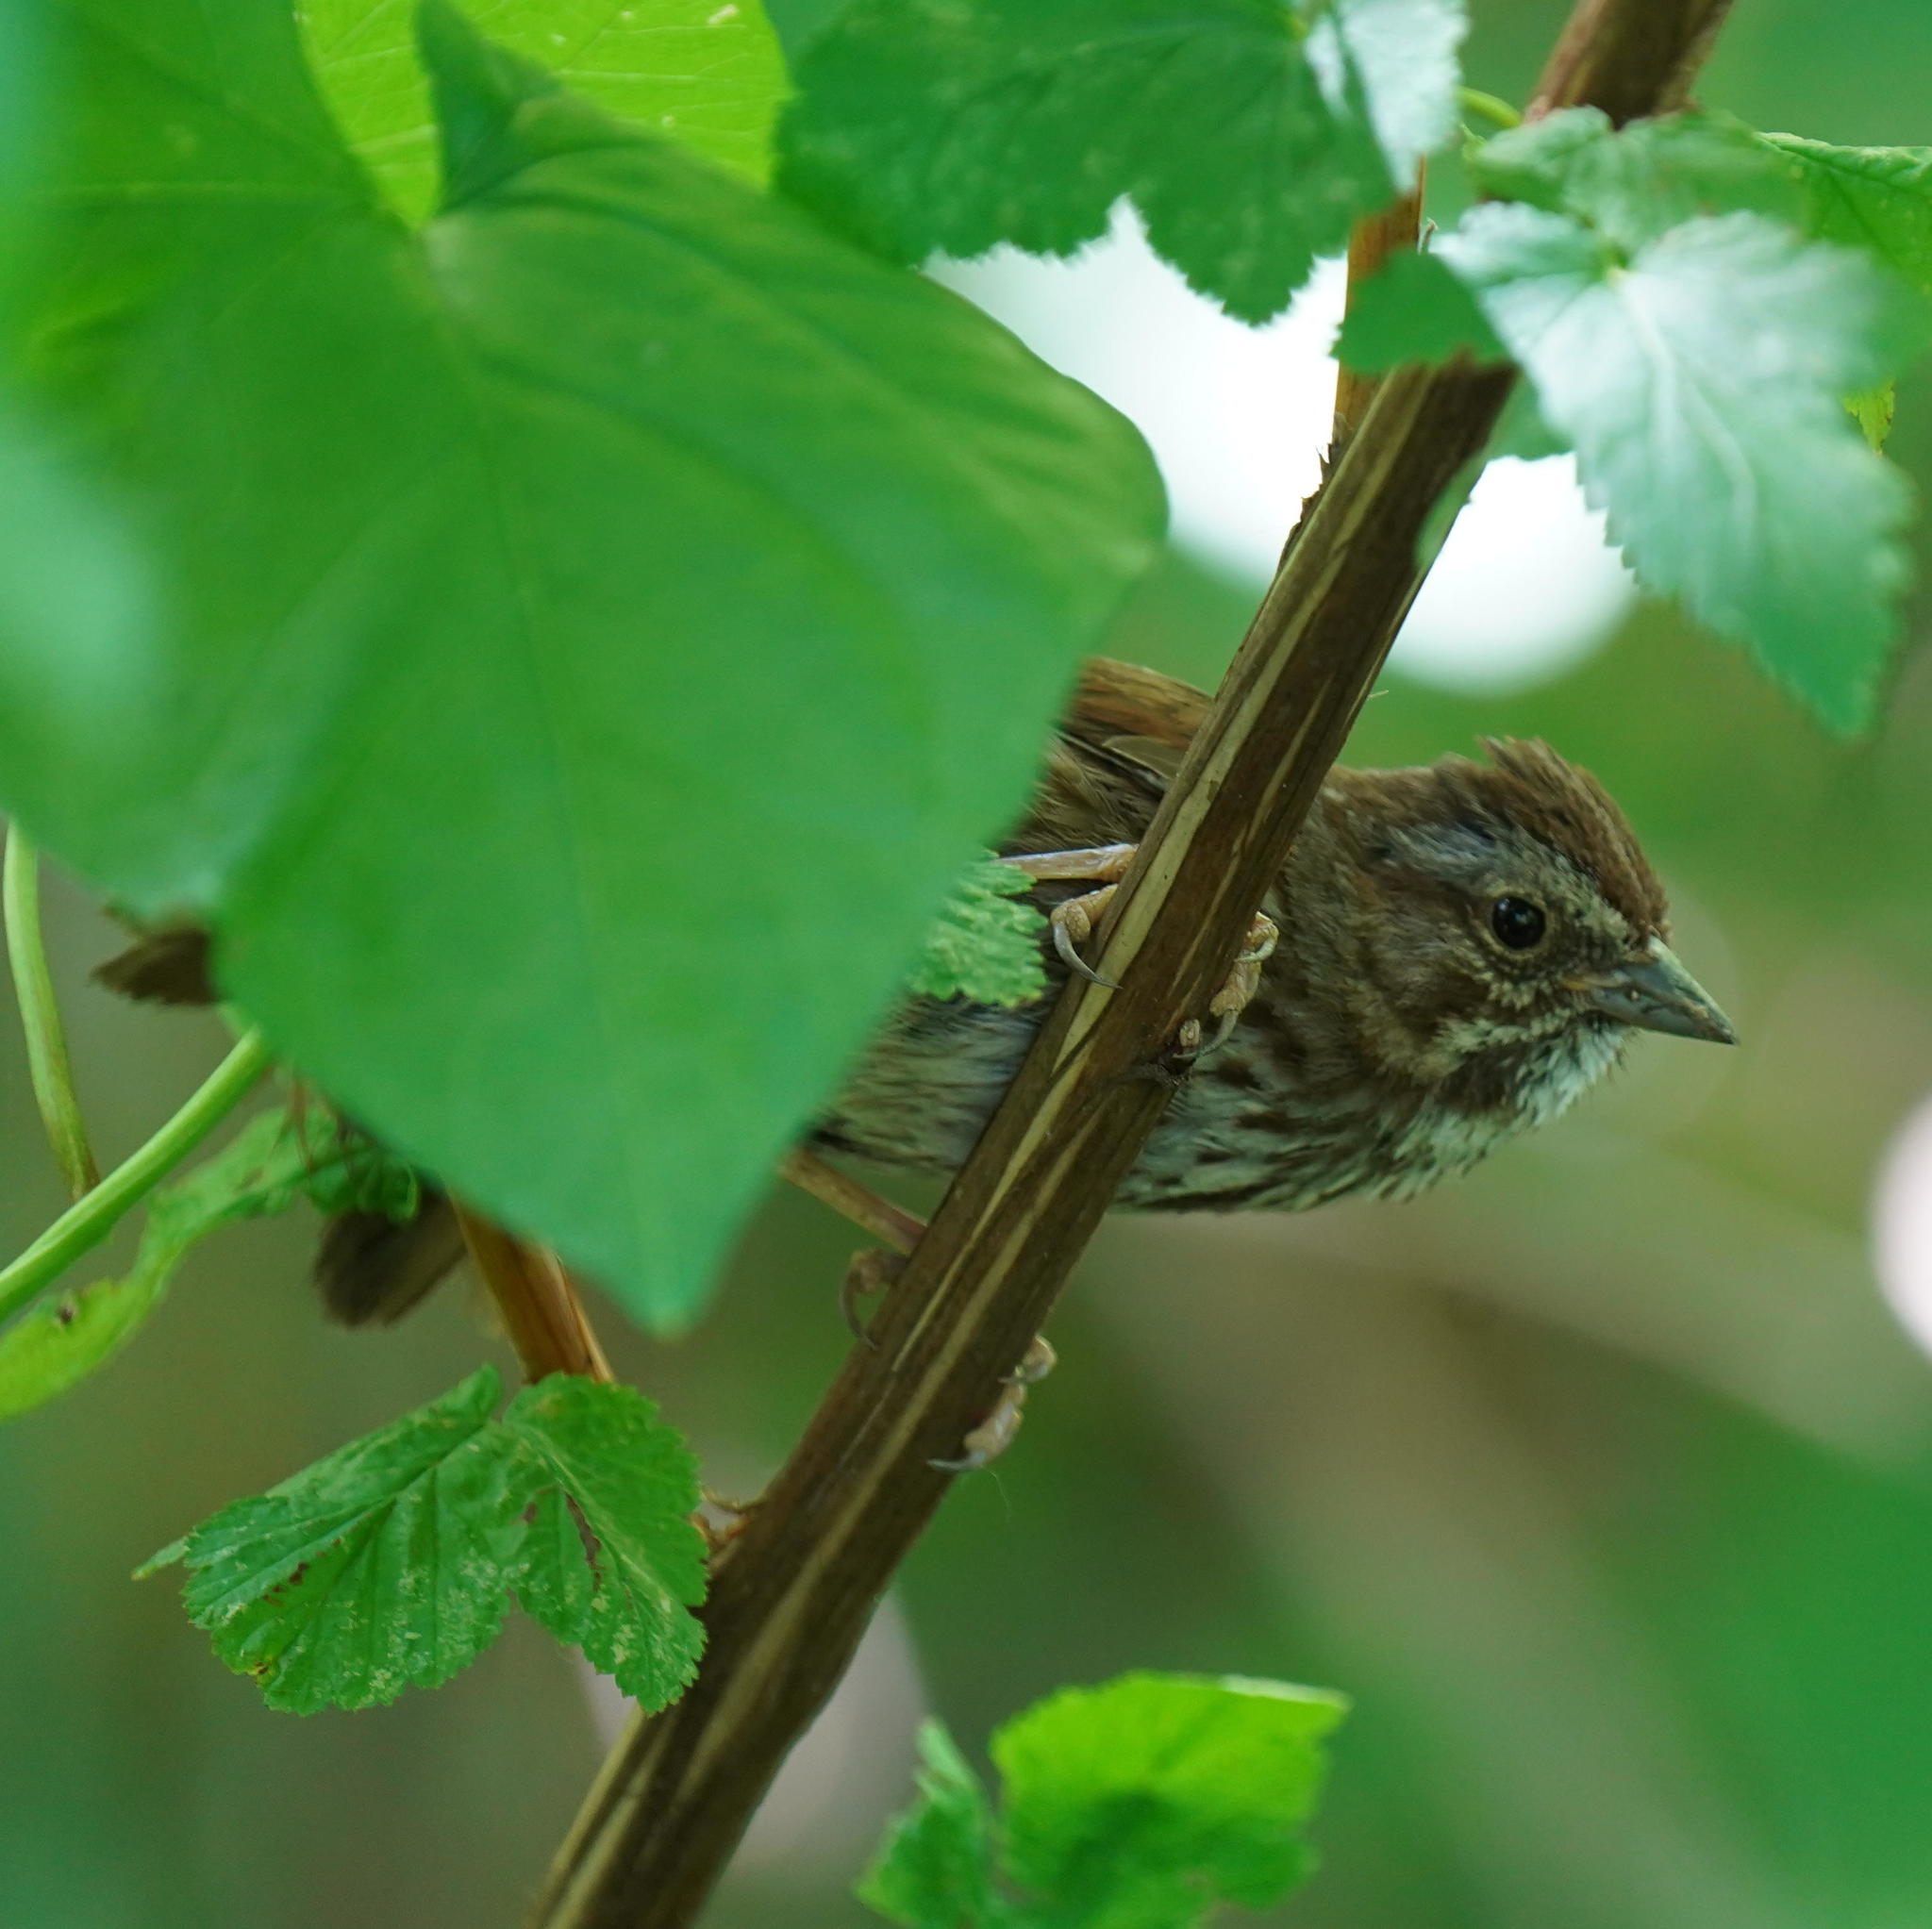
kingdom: Animalia
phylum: Chordata
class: Aves
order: Passeriformes
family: Passerellidae
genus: Melospiza
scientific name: Melospiza melodia
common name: Song sparrow
